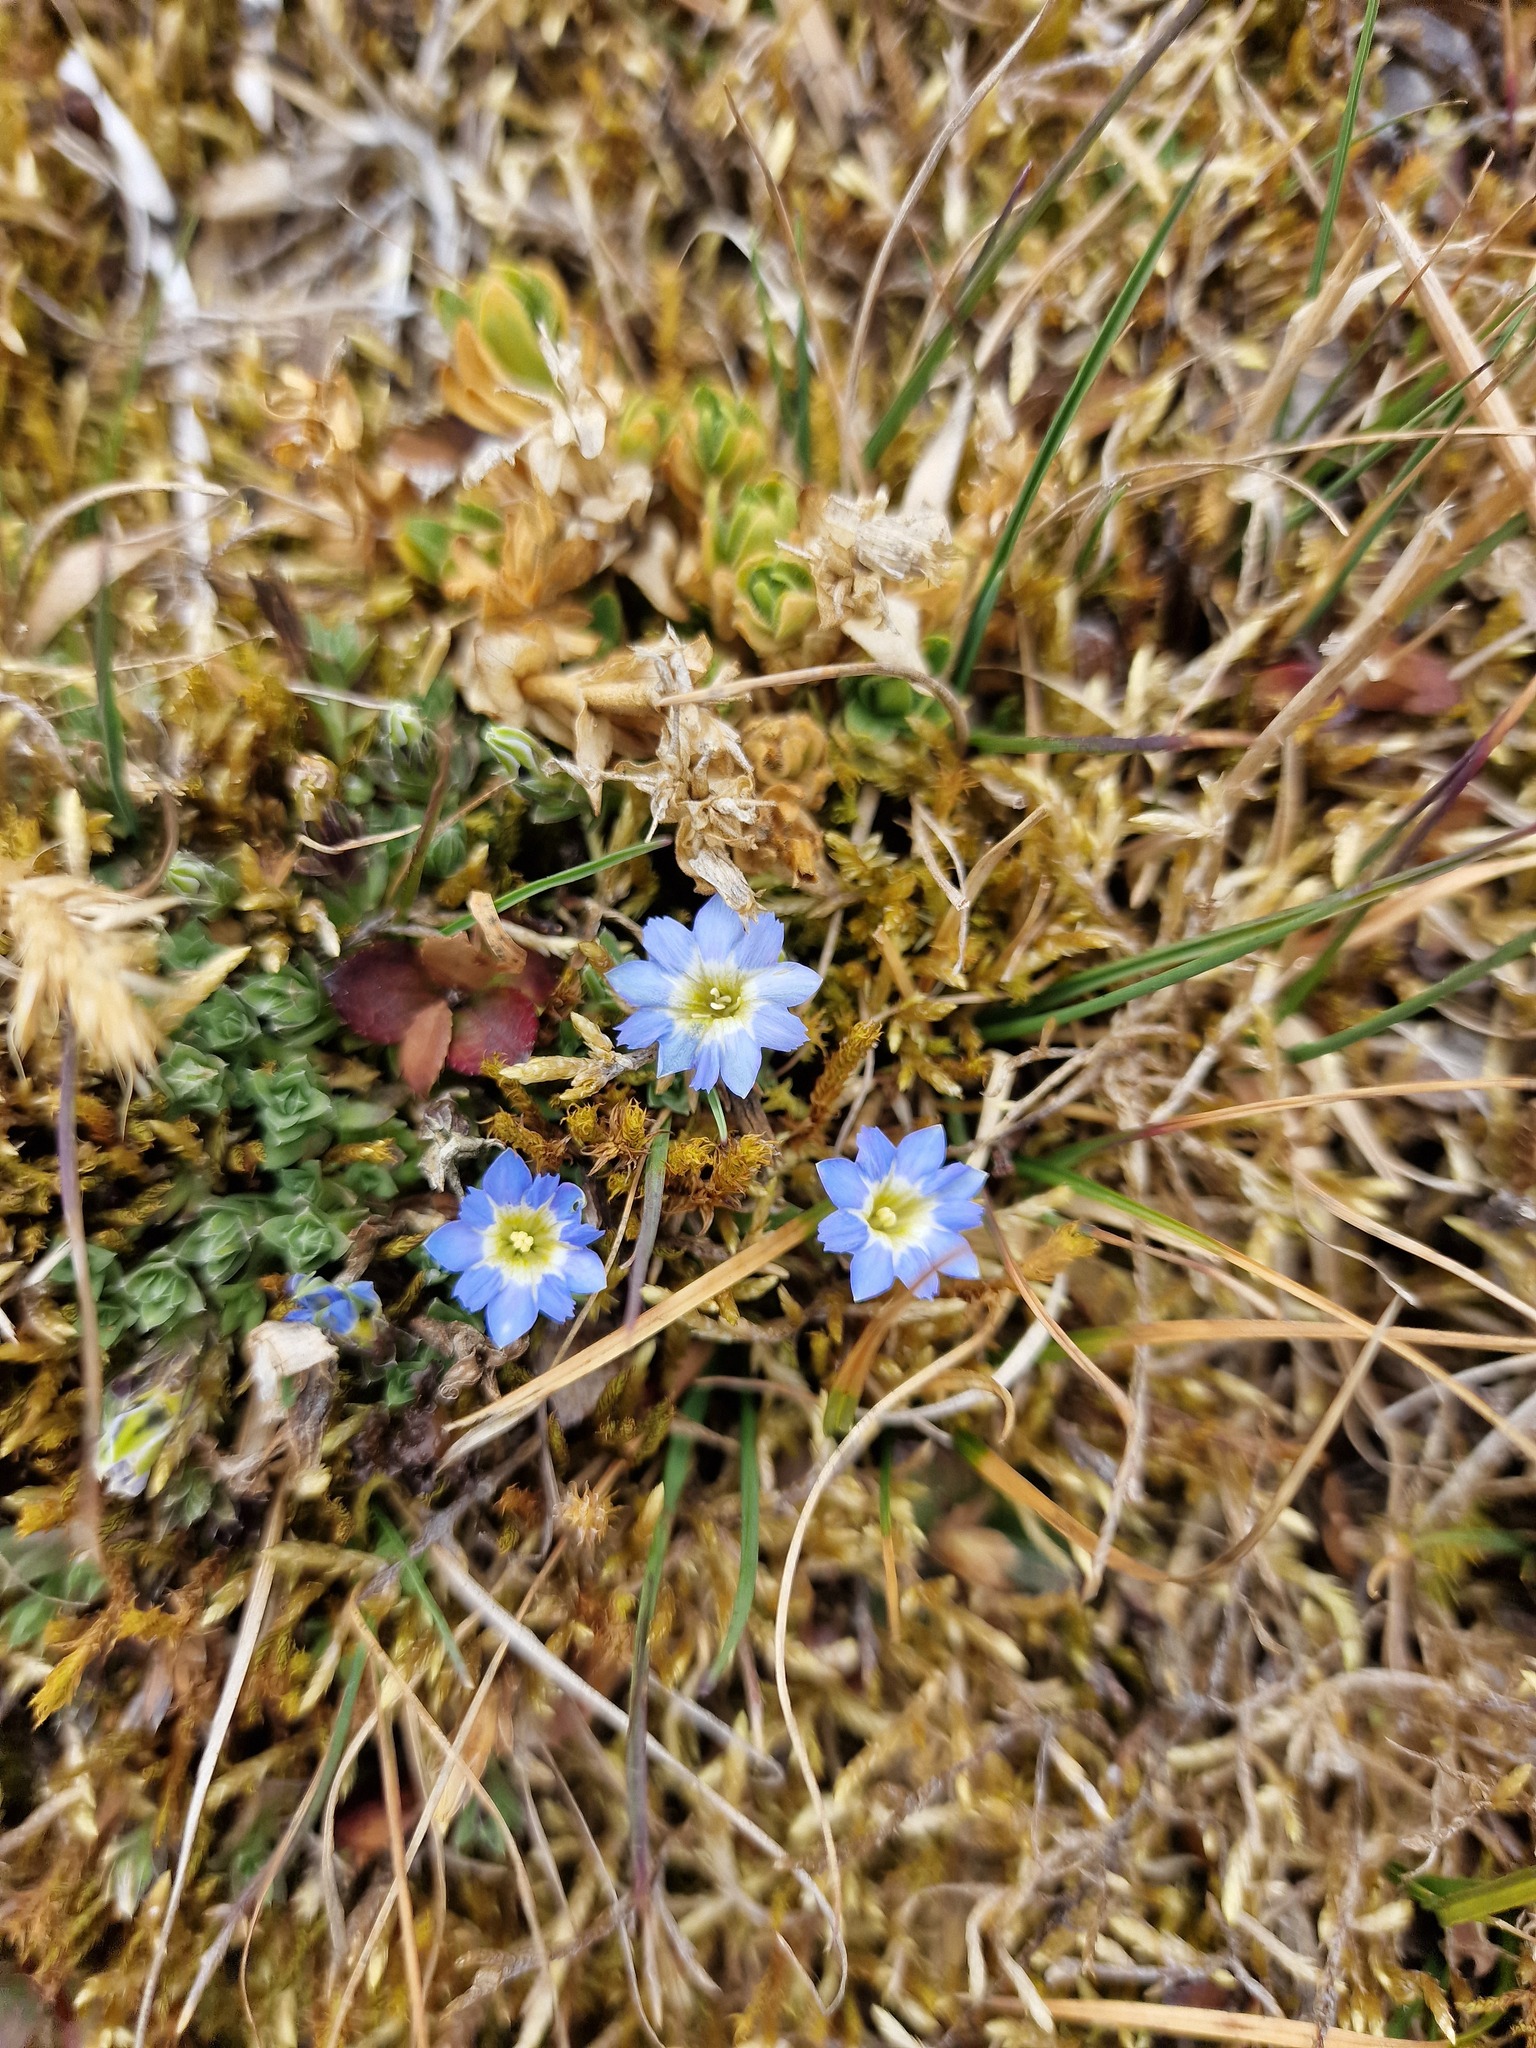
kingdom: Plantae
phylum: Tracheophyta
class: Magnoliopsida
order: Gentianales
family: Gentianaceae
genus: Gentiana
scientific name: Gentiana sedifolia
